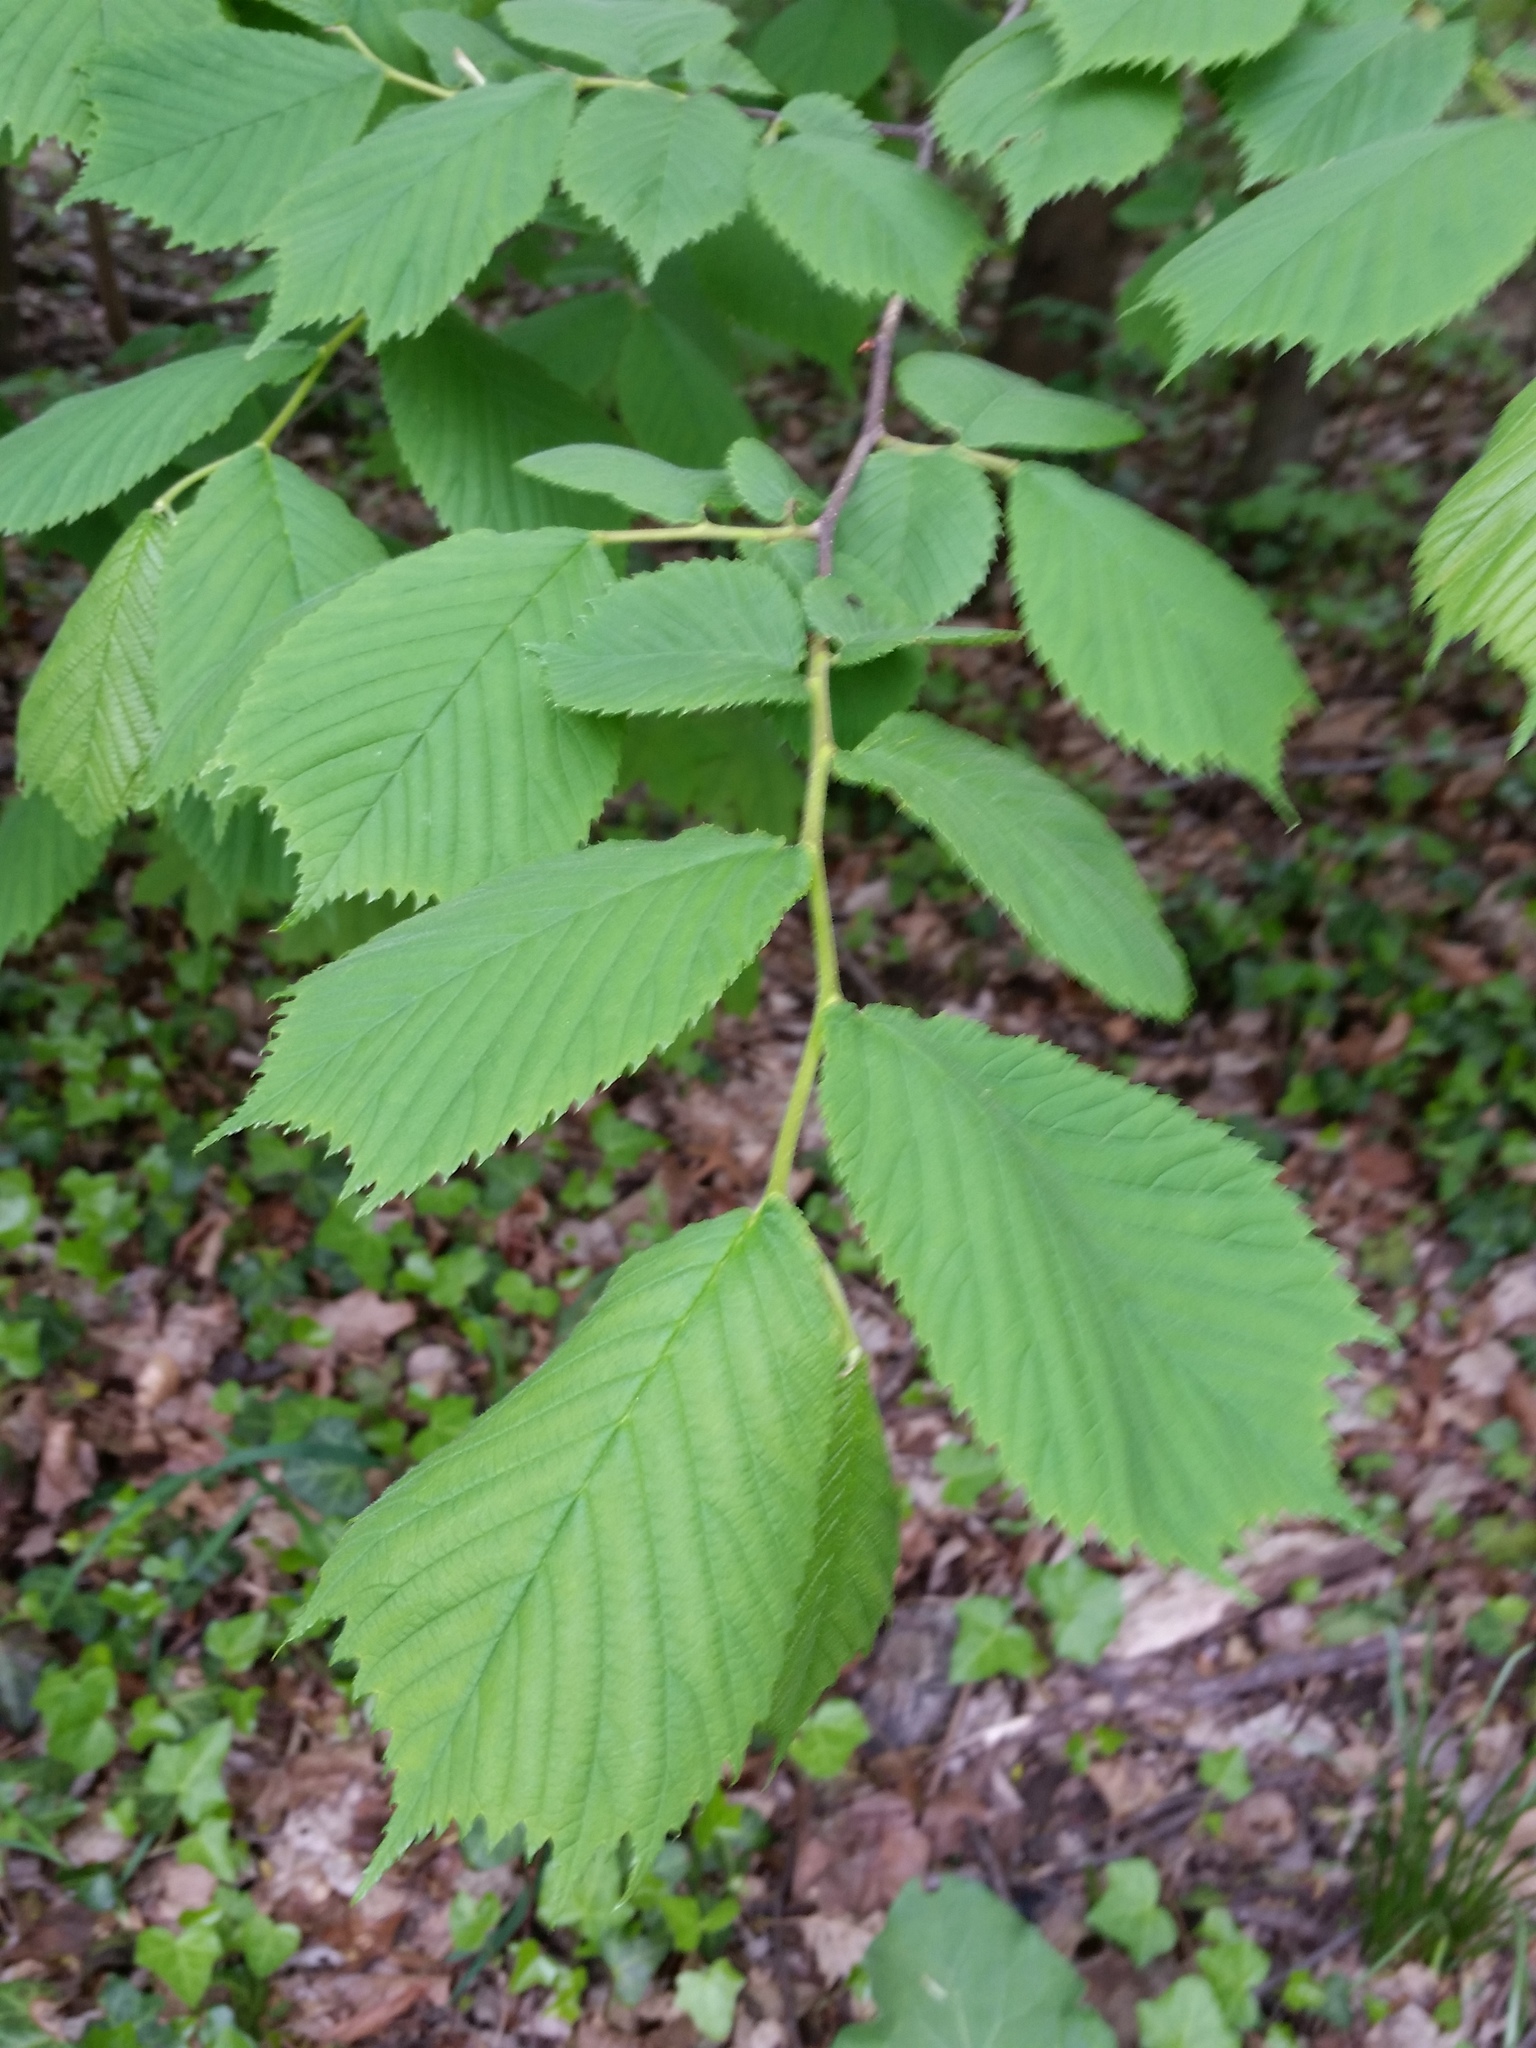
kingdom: Plantae
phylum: Tracheophyta
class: Magnoliopsida
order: Rosales
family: Ulmaceae
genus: Ulmus
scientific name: Ulmus glabra
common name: Wych elm
